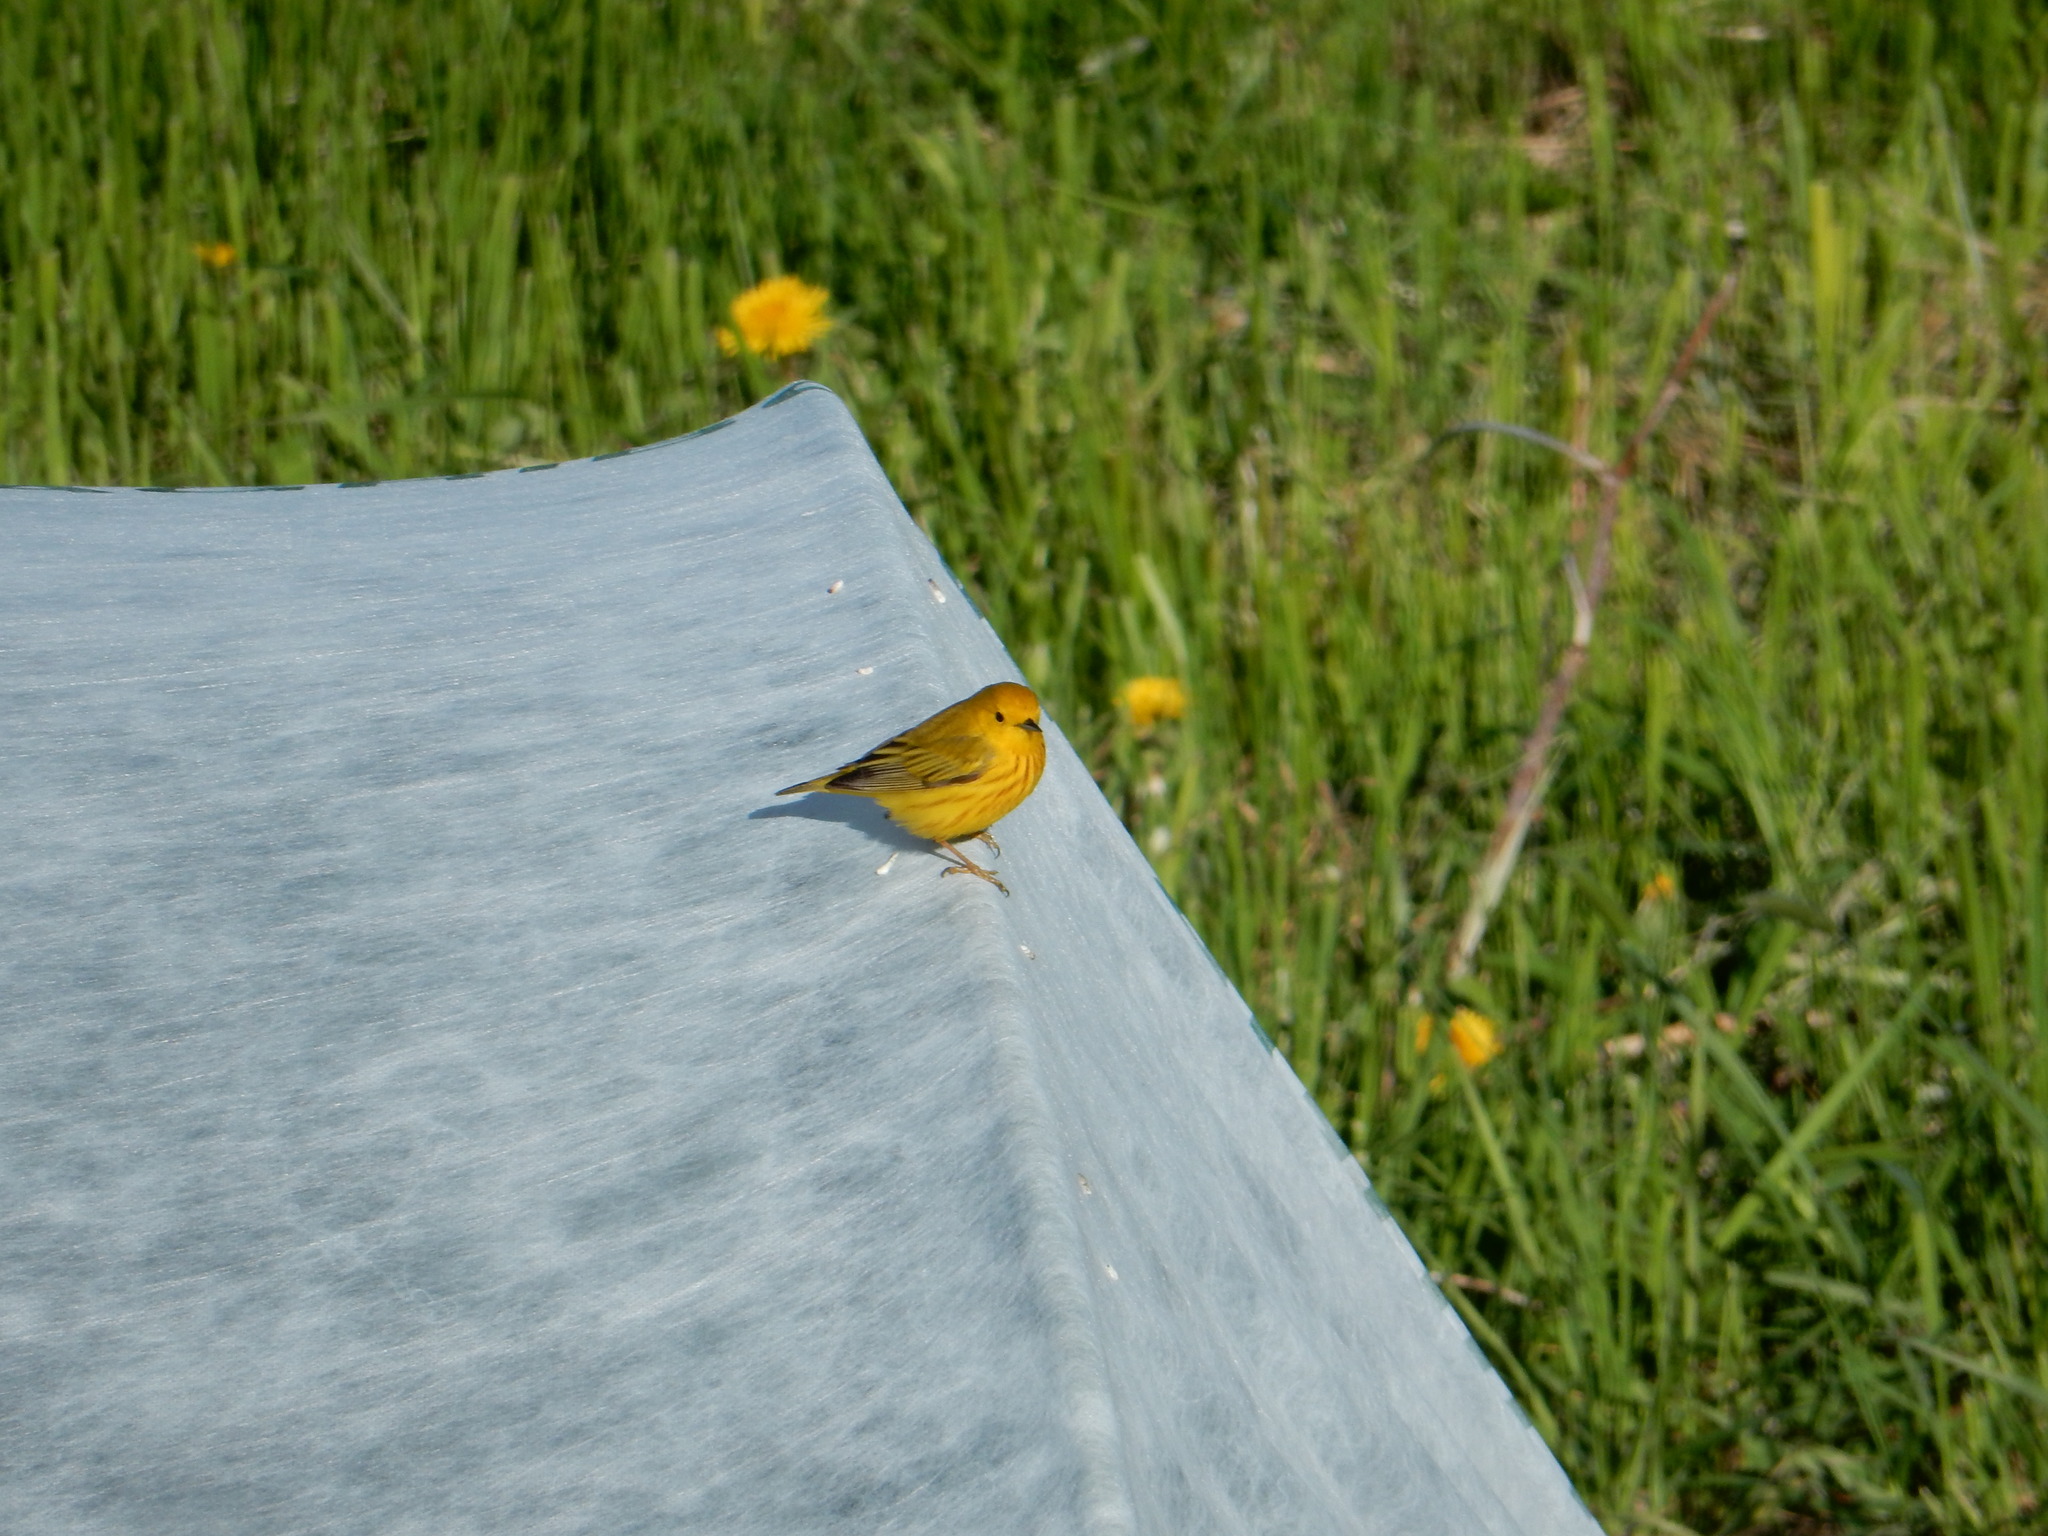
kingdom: Animalia
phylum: Chordata
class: Aves
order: Passeriformes
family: Parulidae
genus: Setophaga
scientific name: Setophaga petechia
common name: Yellow warbler
